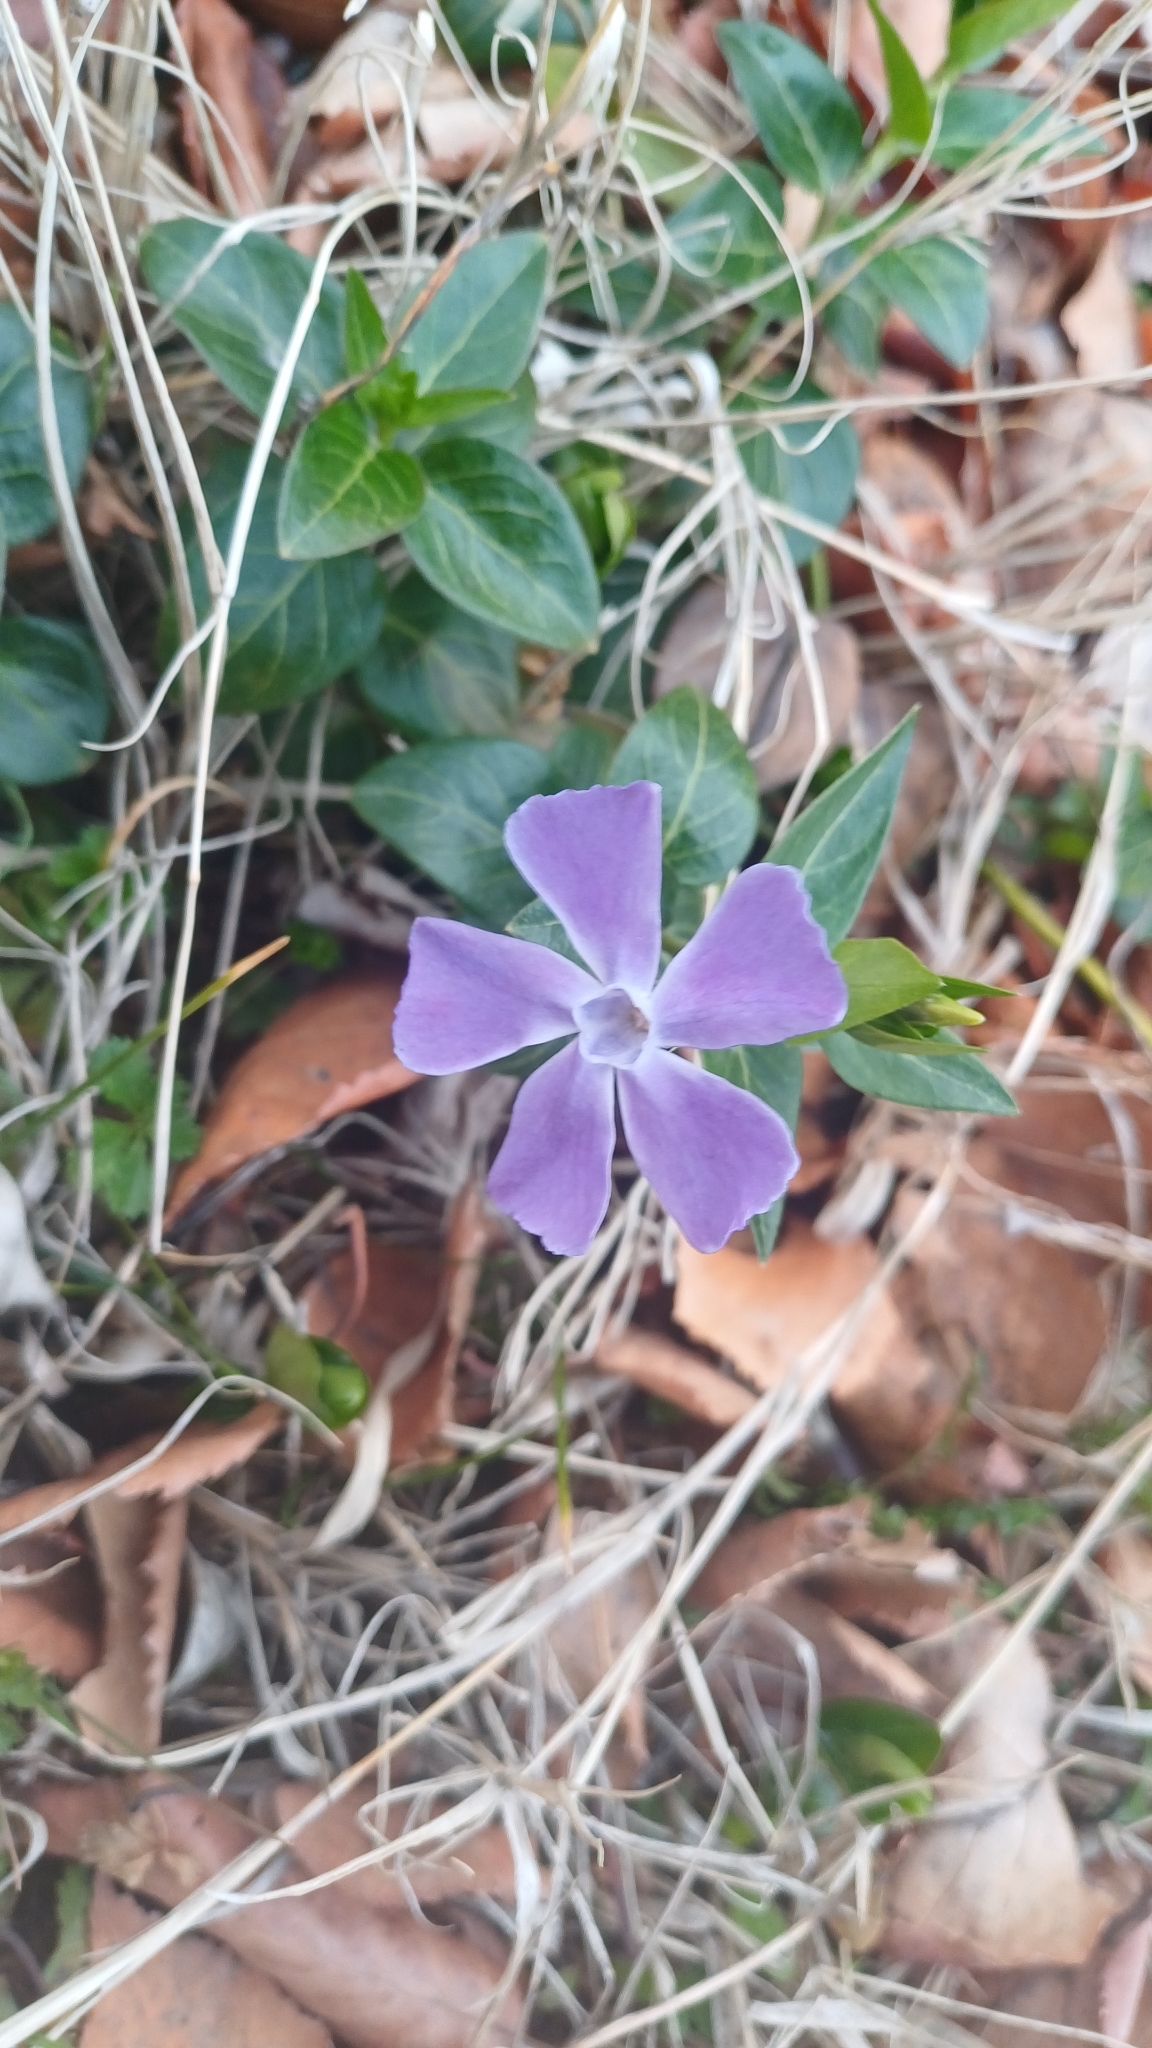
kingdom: Plantae
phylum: Tracheophyta
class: Magnoliopsida
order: Gentianales
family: Apocynaceae
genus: Vinca
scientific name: Vinca major
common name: Greater periwinkle
